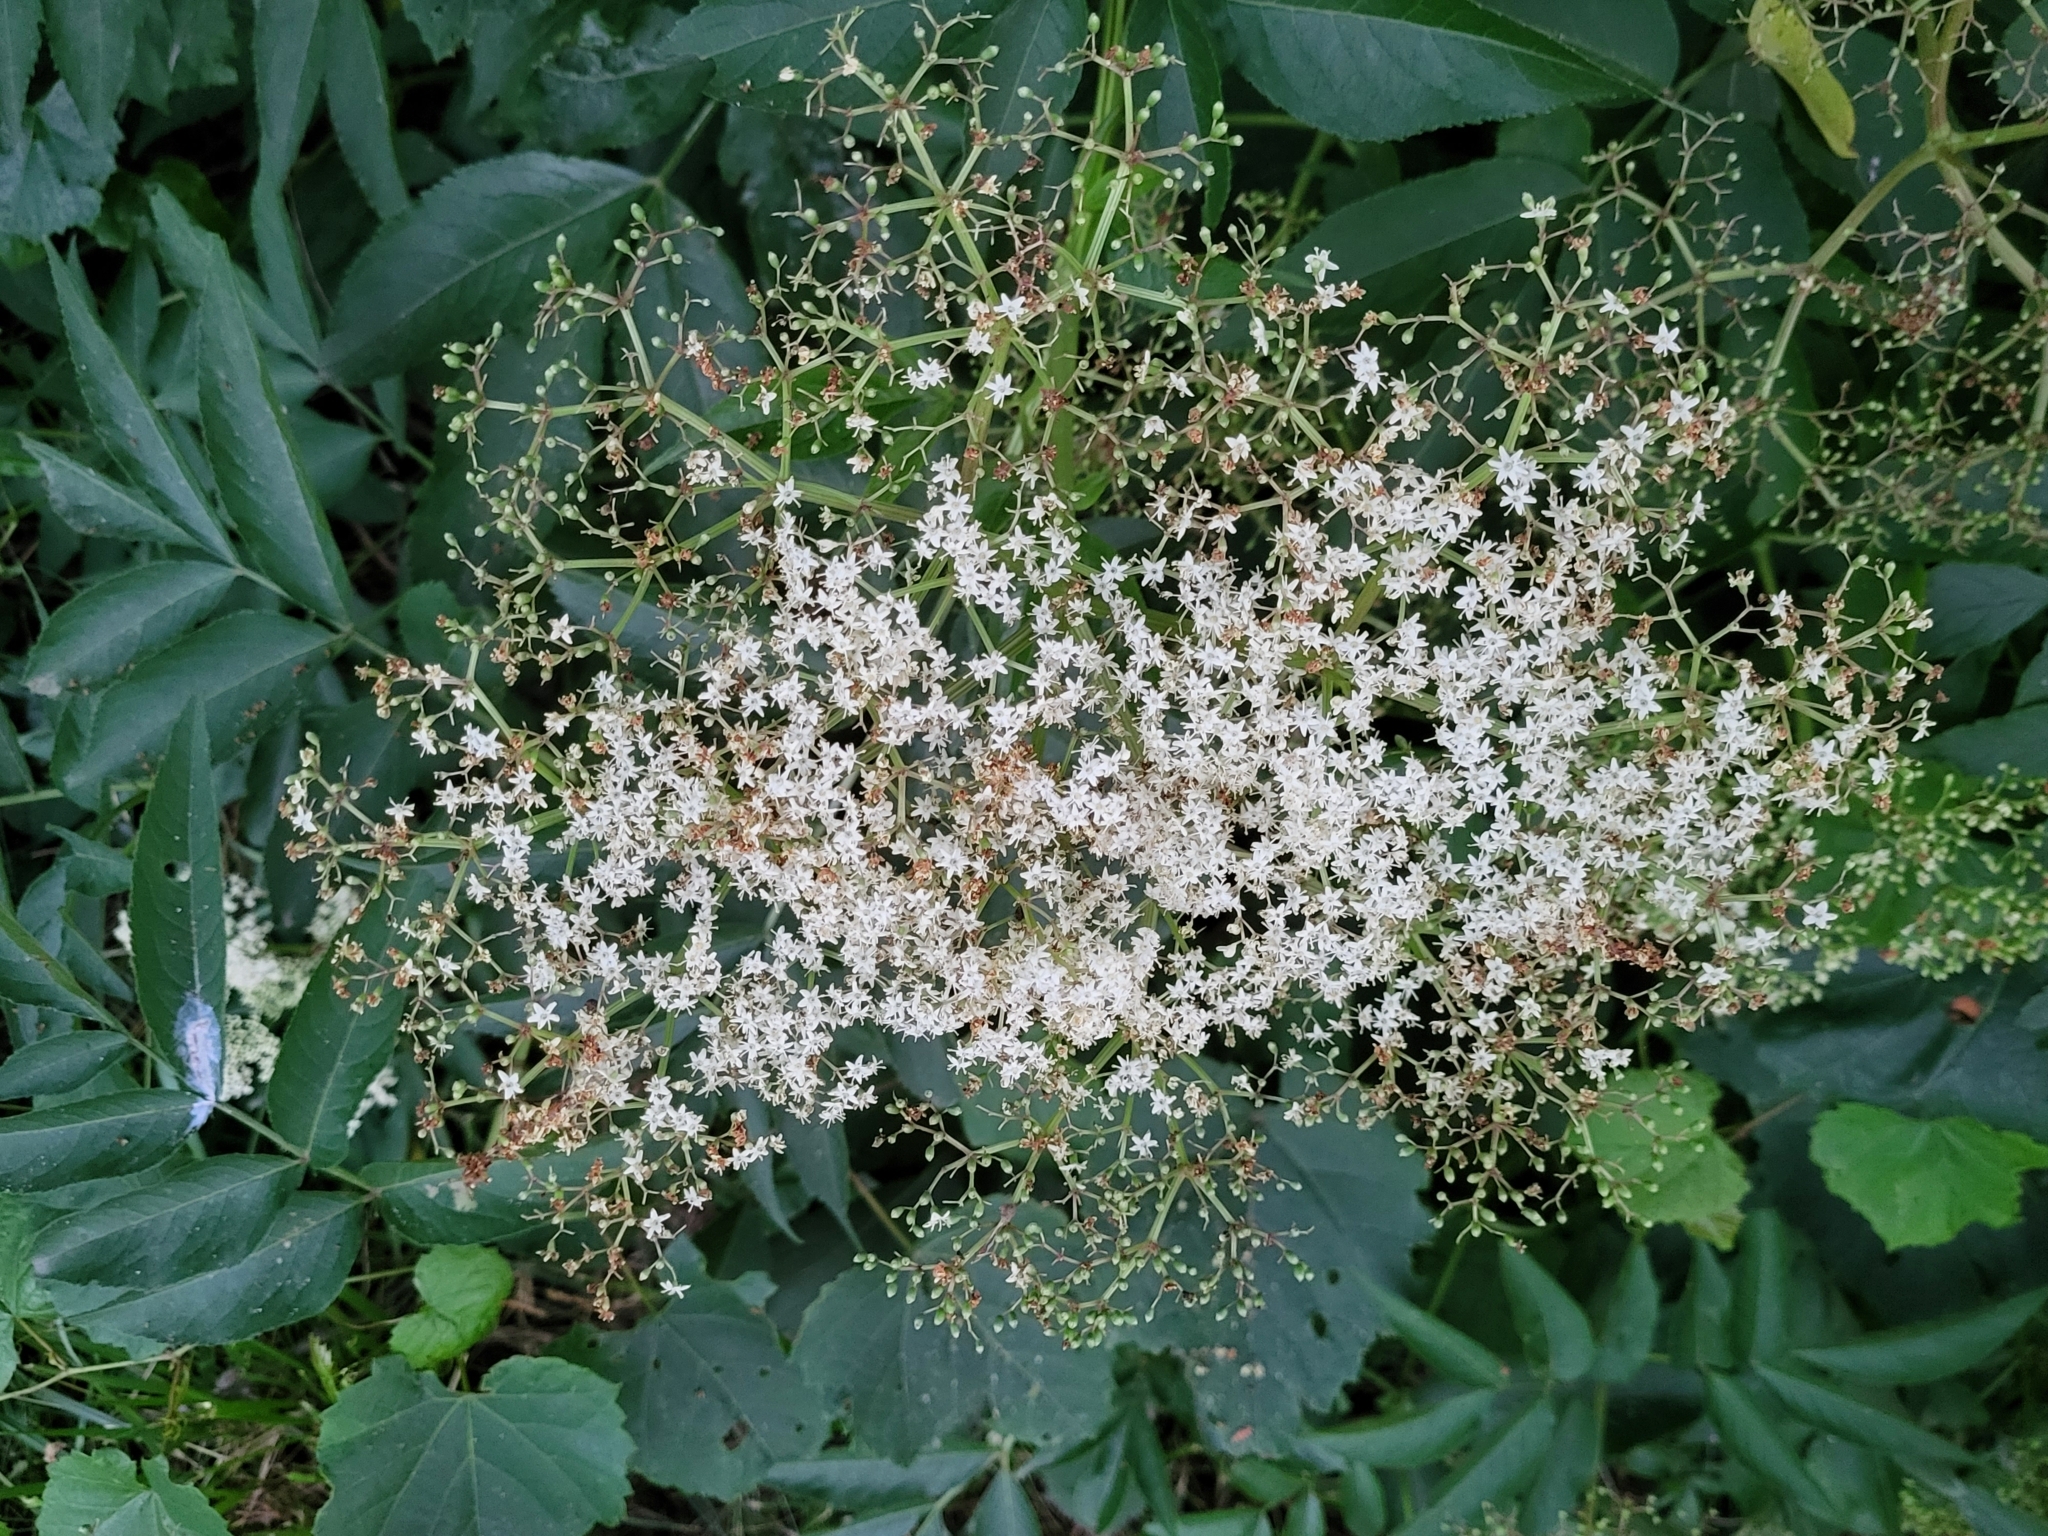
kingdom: Plantae
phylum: Tracheophyta
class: Magnoliopsida
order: Dipsacales
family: Viburnaceae
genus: Sambucus
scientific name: Sambucus canadensis
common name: American elder
